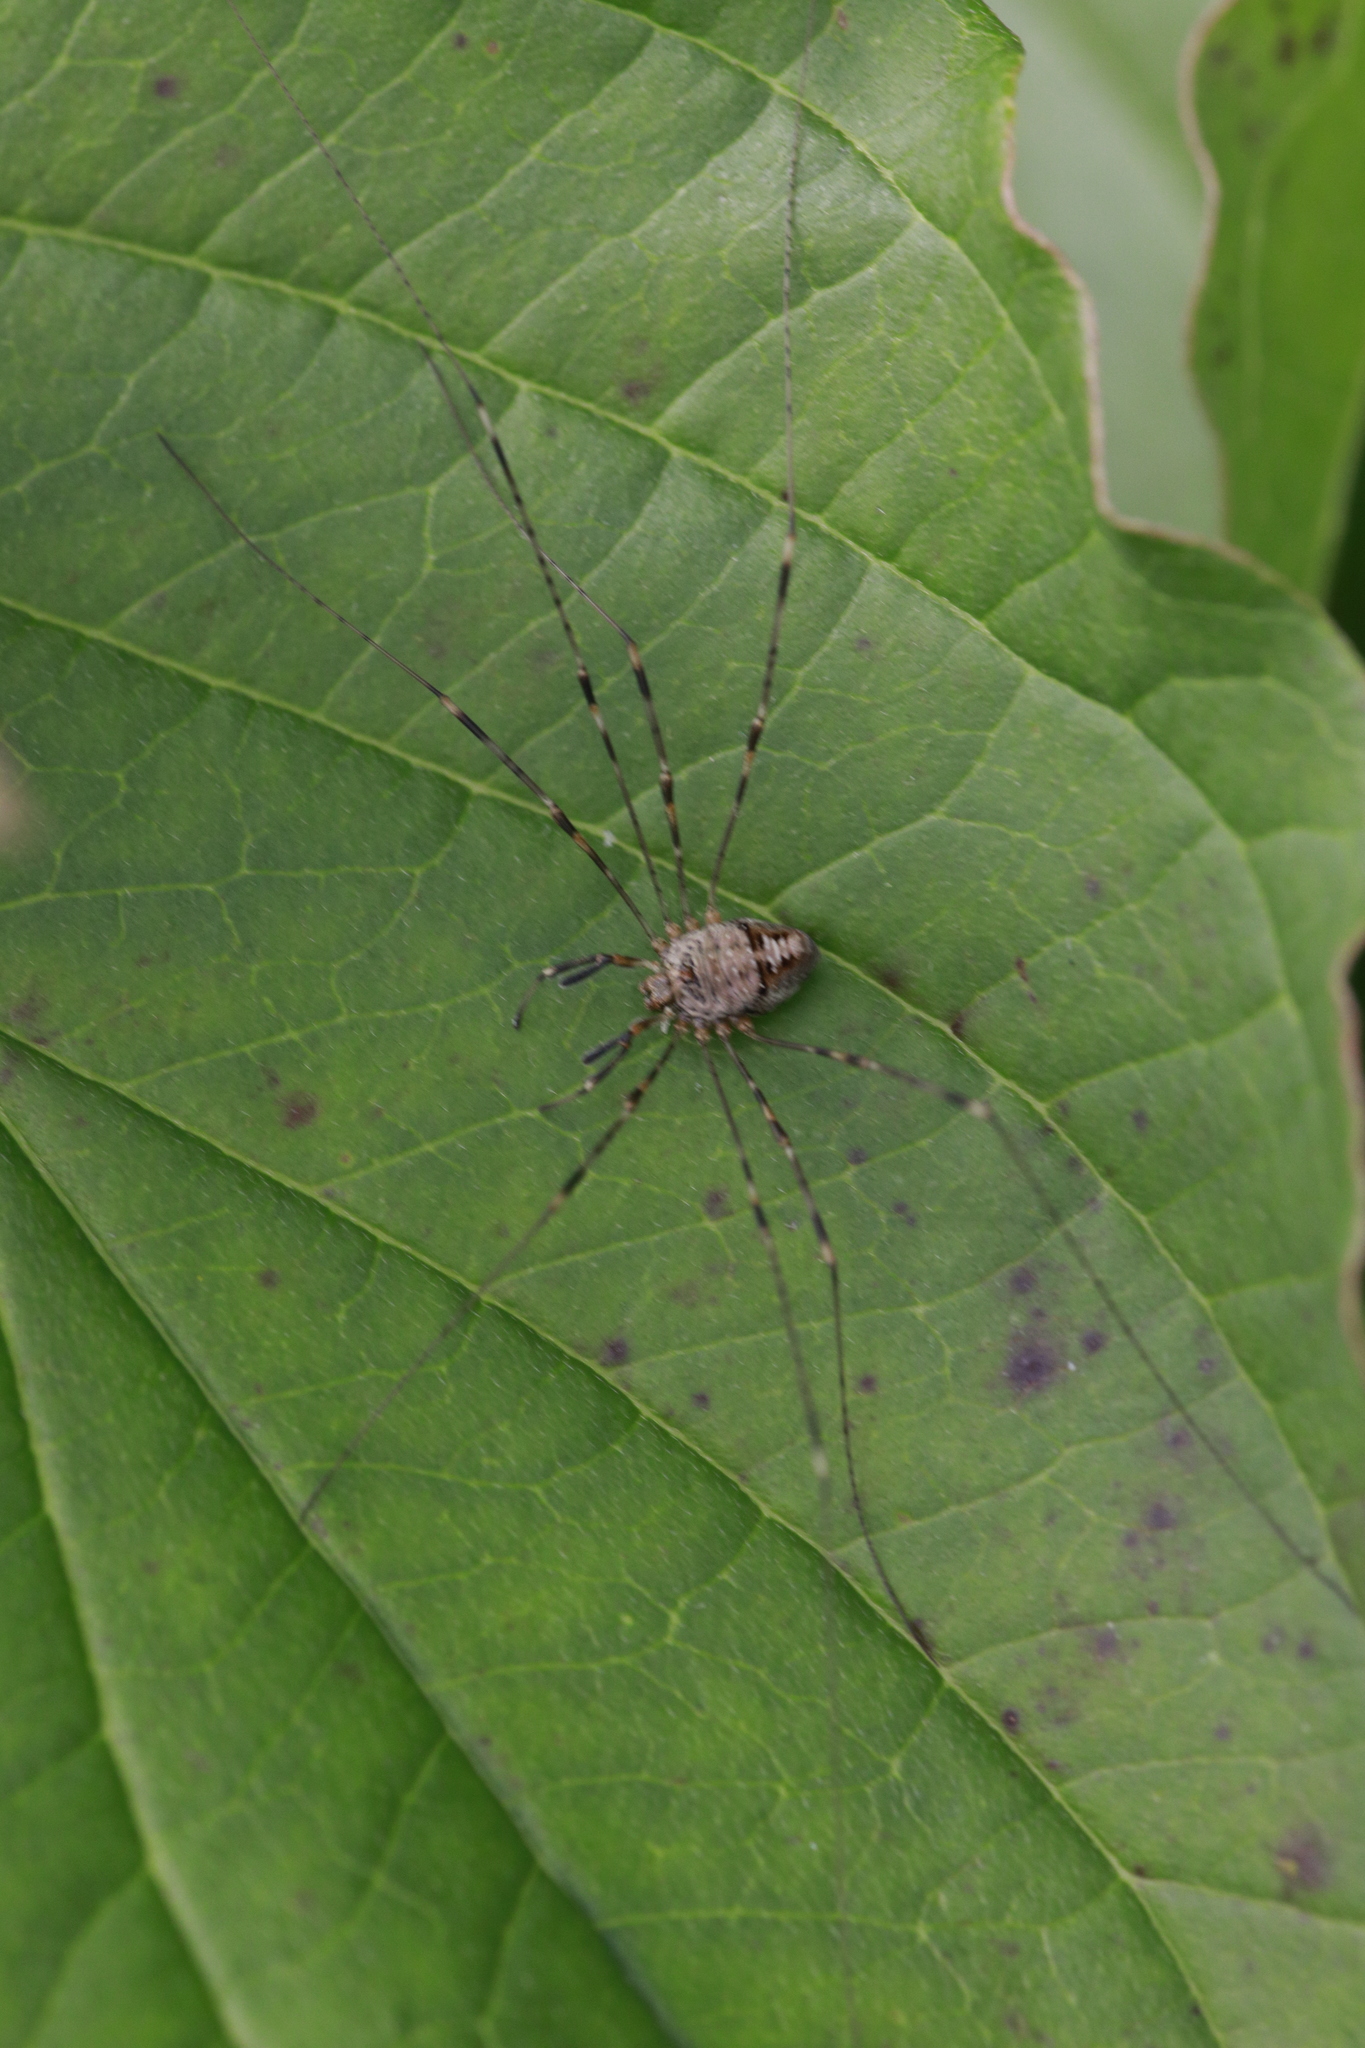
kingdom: Animalia
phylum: Arthropoda
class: Arachnida
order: Opiliones
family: Phalangiidae
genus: Dicranopalpus
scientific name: Dicranopalpus ramosus
